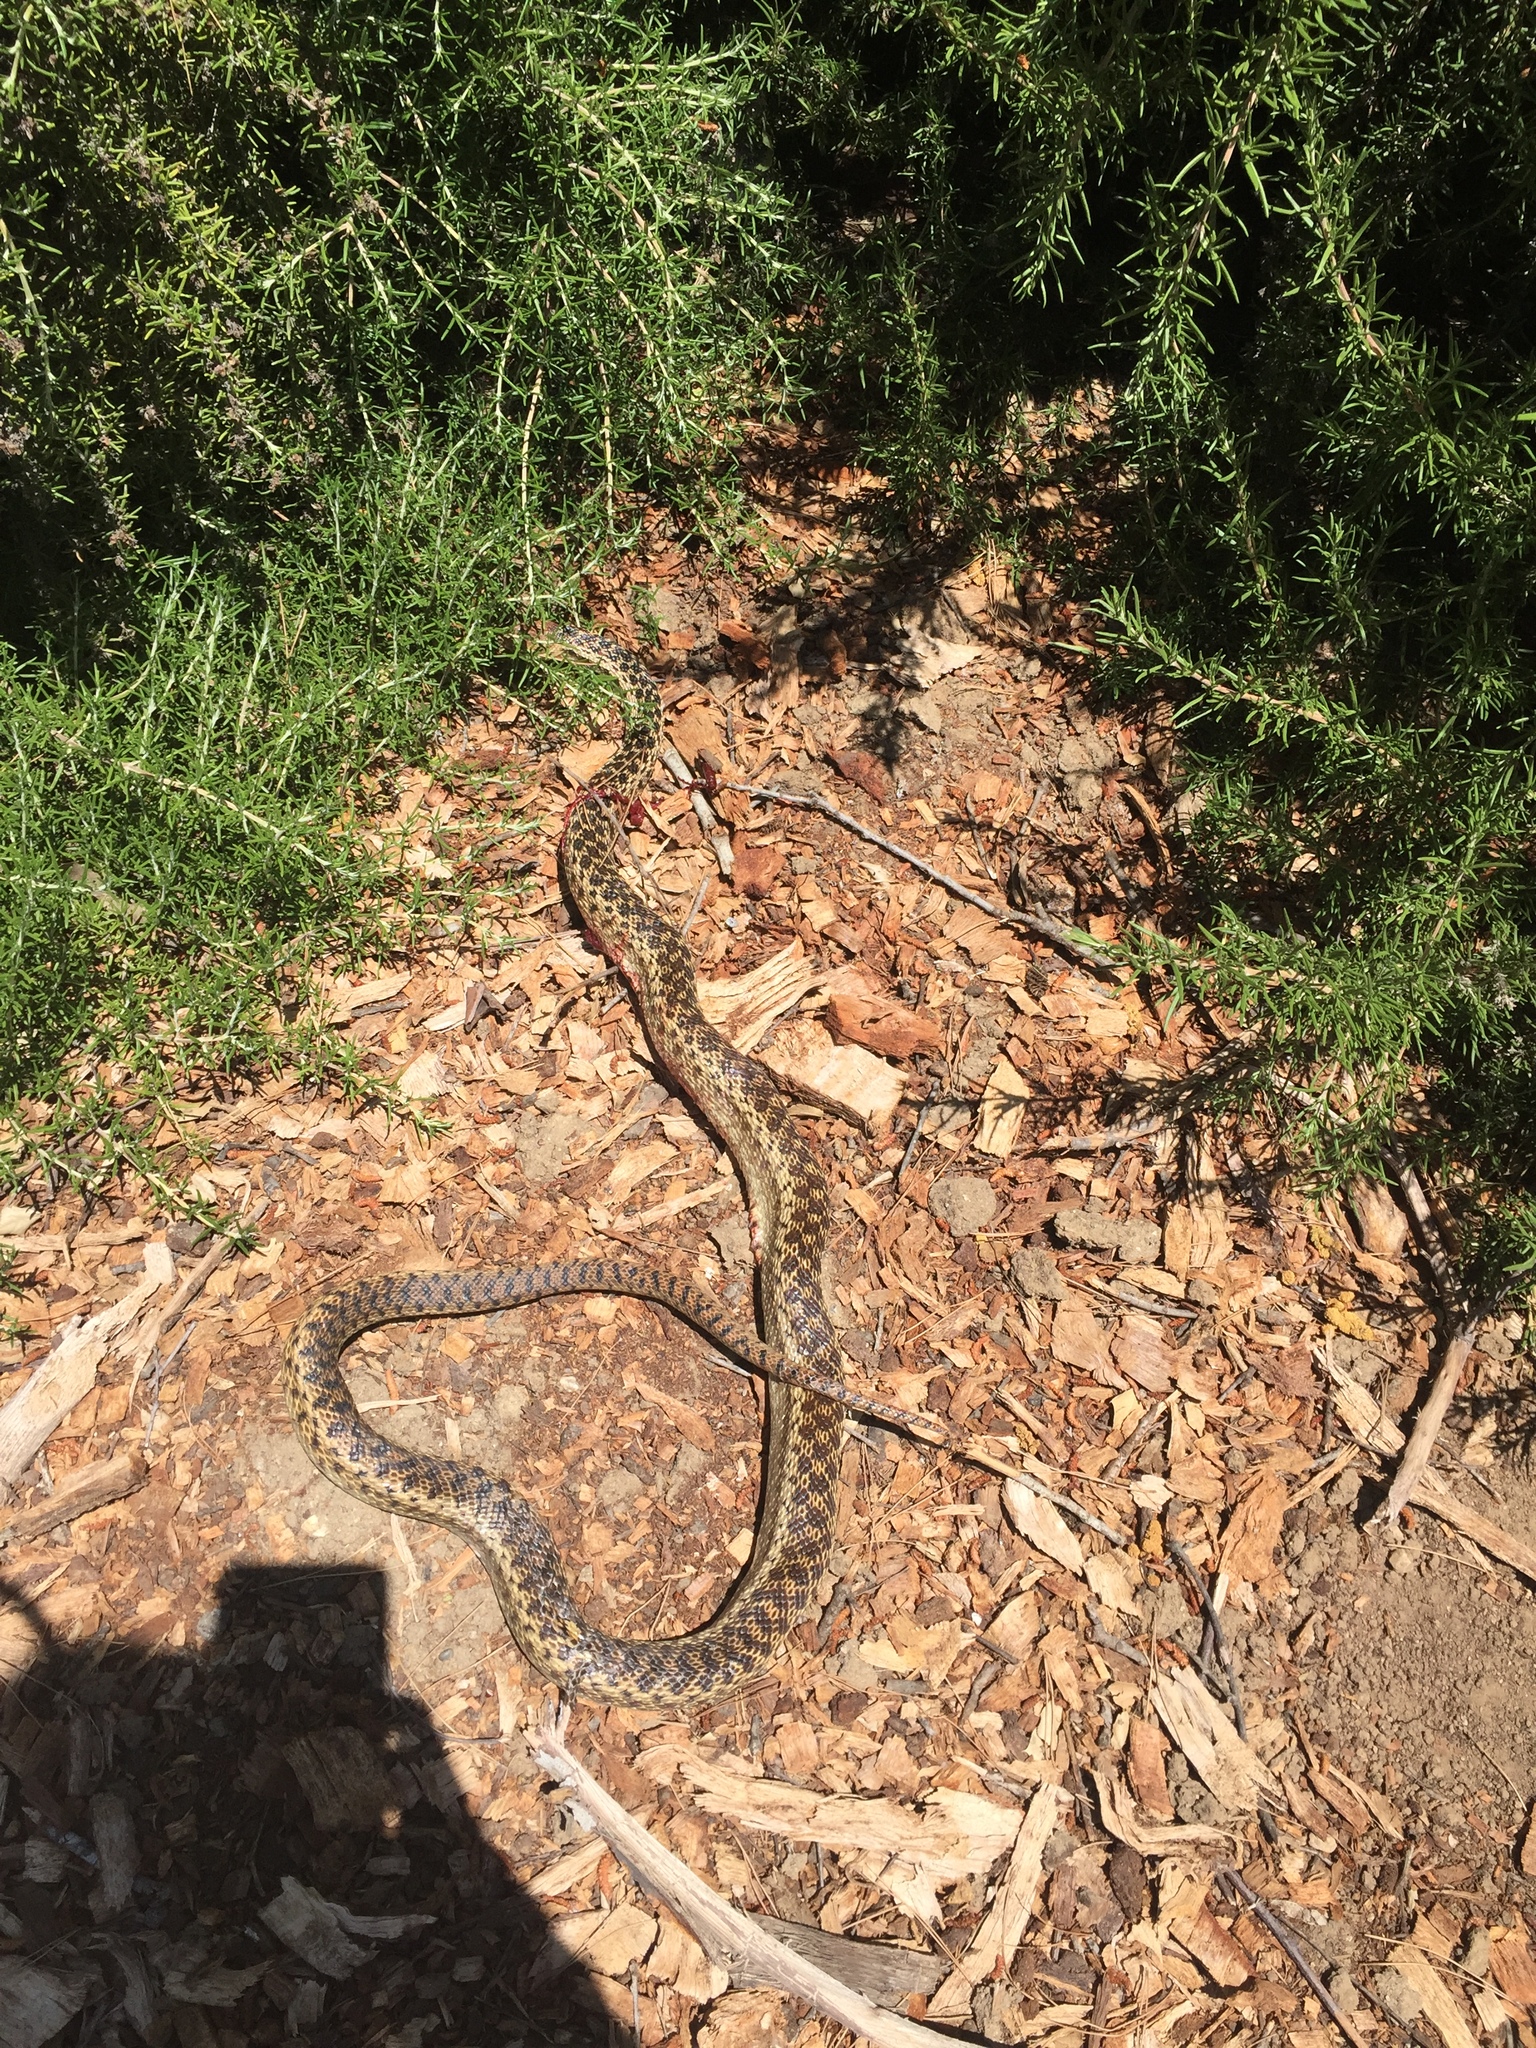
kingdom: Animalia
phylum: Chordata
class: Squamata
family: Colubridae
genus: Pituophis
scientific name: Pituophis catenifer
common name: Gopher snake
